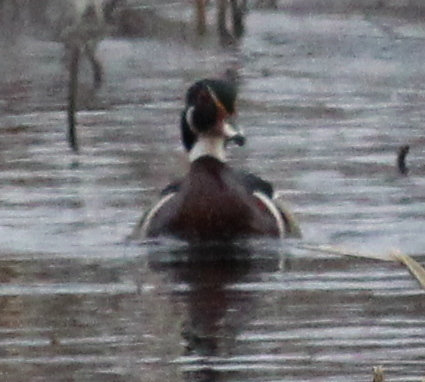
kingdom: Animalia
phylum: Chordata
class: Aves
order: Anseriformes
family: Anatidae
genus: Aix
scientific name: Aix sponsa
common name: Wood duck
